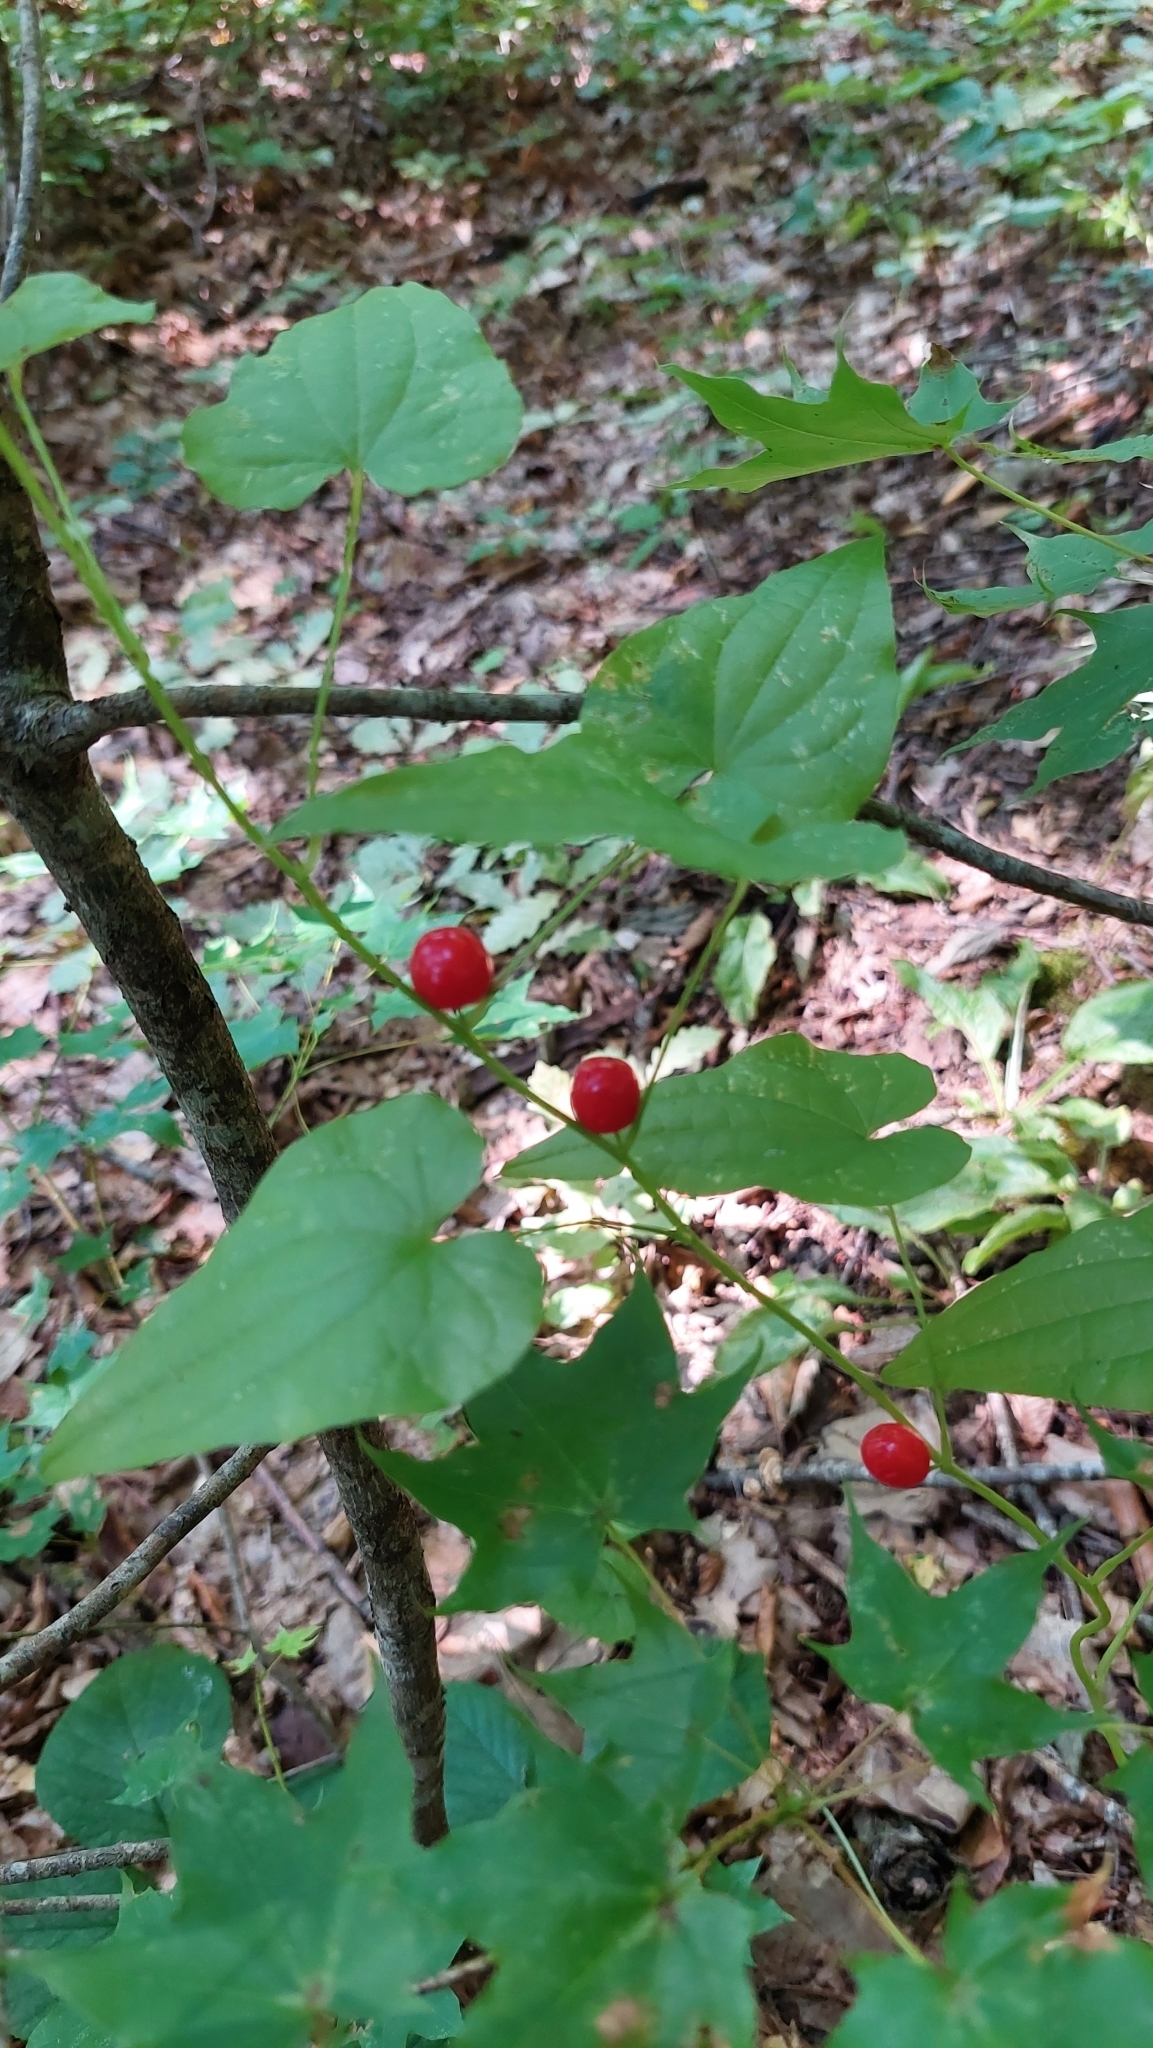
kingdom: Plantae
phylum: Tracheophyta
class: Liliopsida
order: Dioscoreales
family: Dioscoreaceae
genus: Dioscorea
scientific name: Dioscorea communis
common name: Black-bindweed
